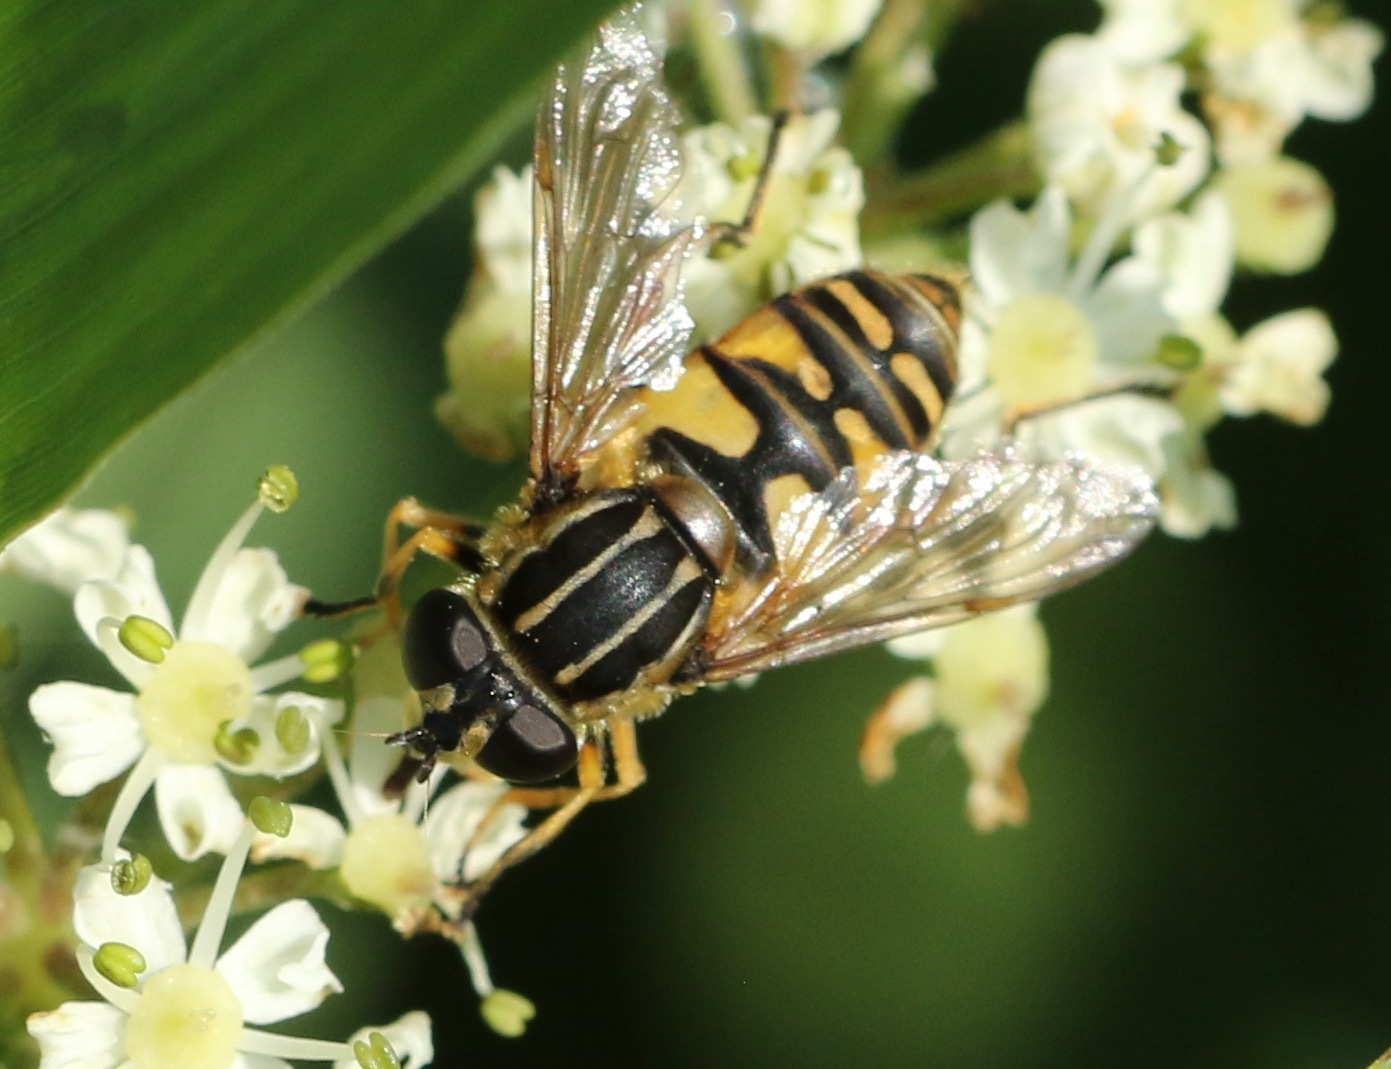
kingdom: Animalia
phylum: Arthropoda
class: Insecta
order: Diptera
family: Syrphidae
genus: Helophilus
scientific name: Helophilus pendulus
